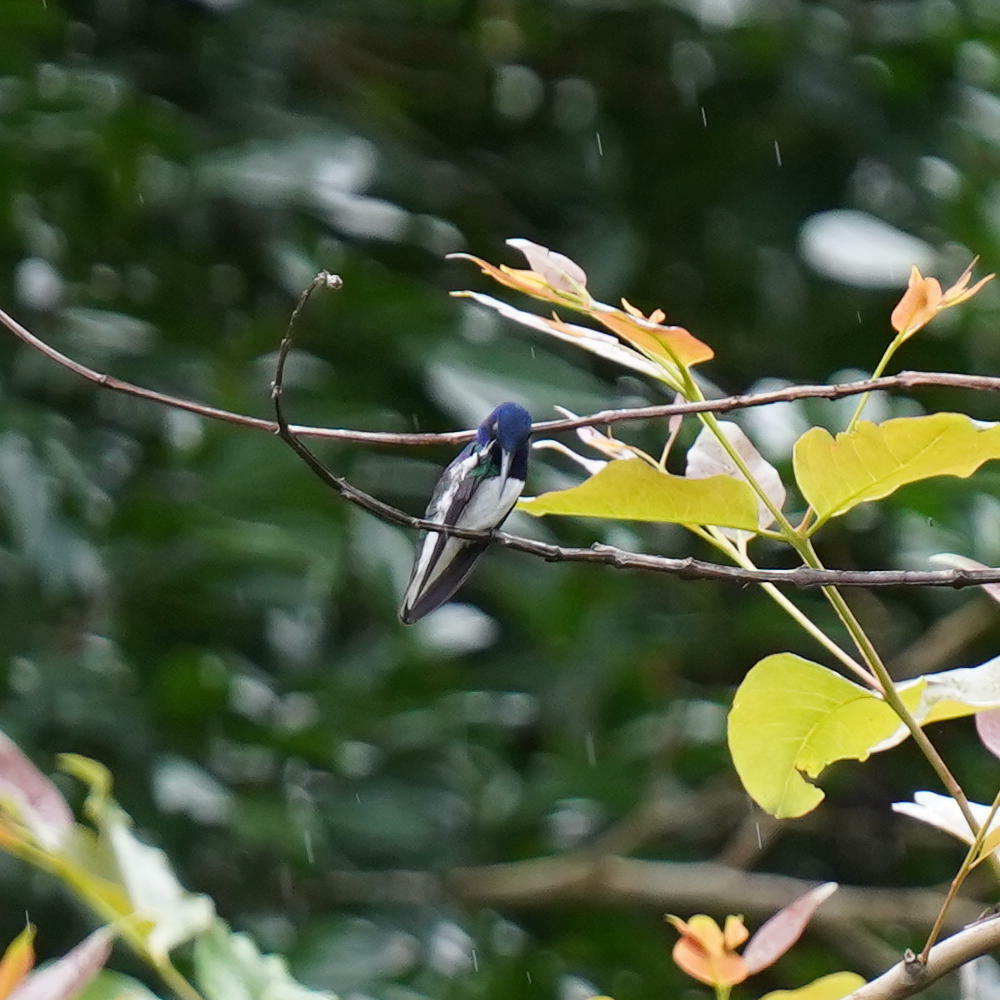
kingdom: Animalia
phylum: Chordata
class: Aves
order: Apodiformes
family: Trochilidae
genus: Florisuga
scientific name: Florisuga mellivora
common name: White-necked jacobin
